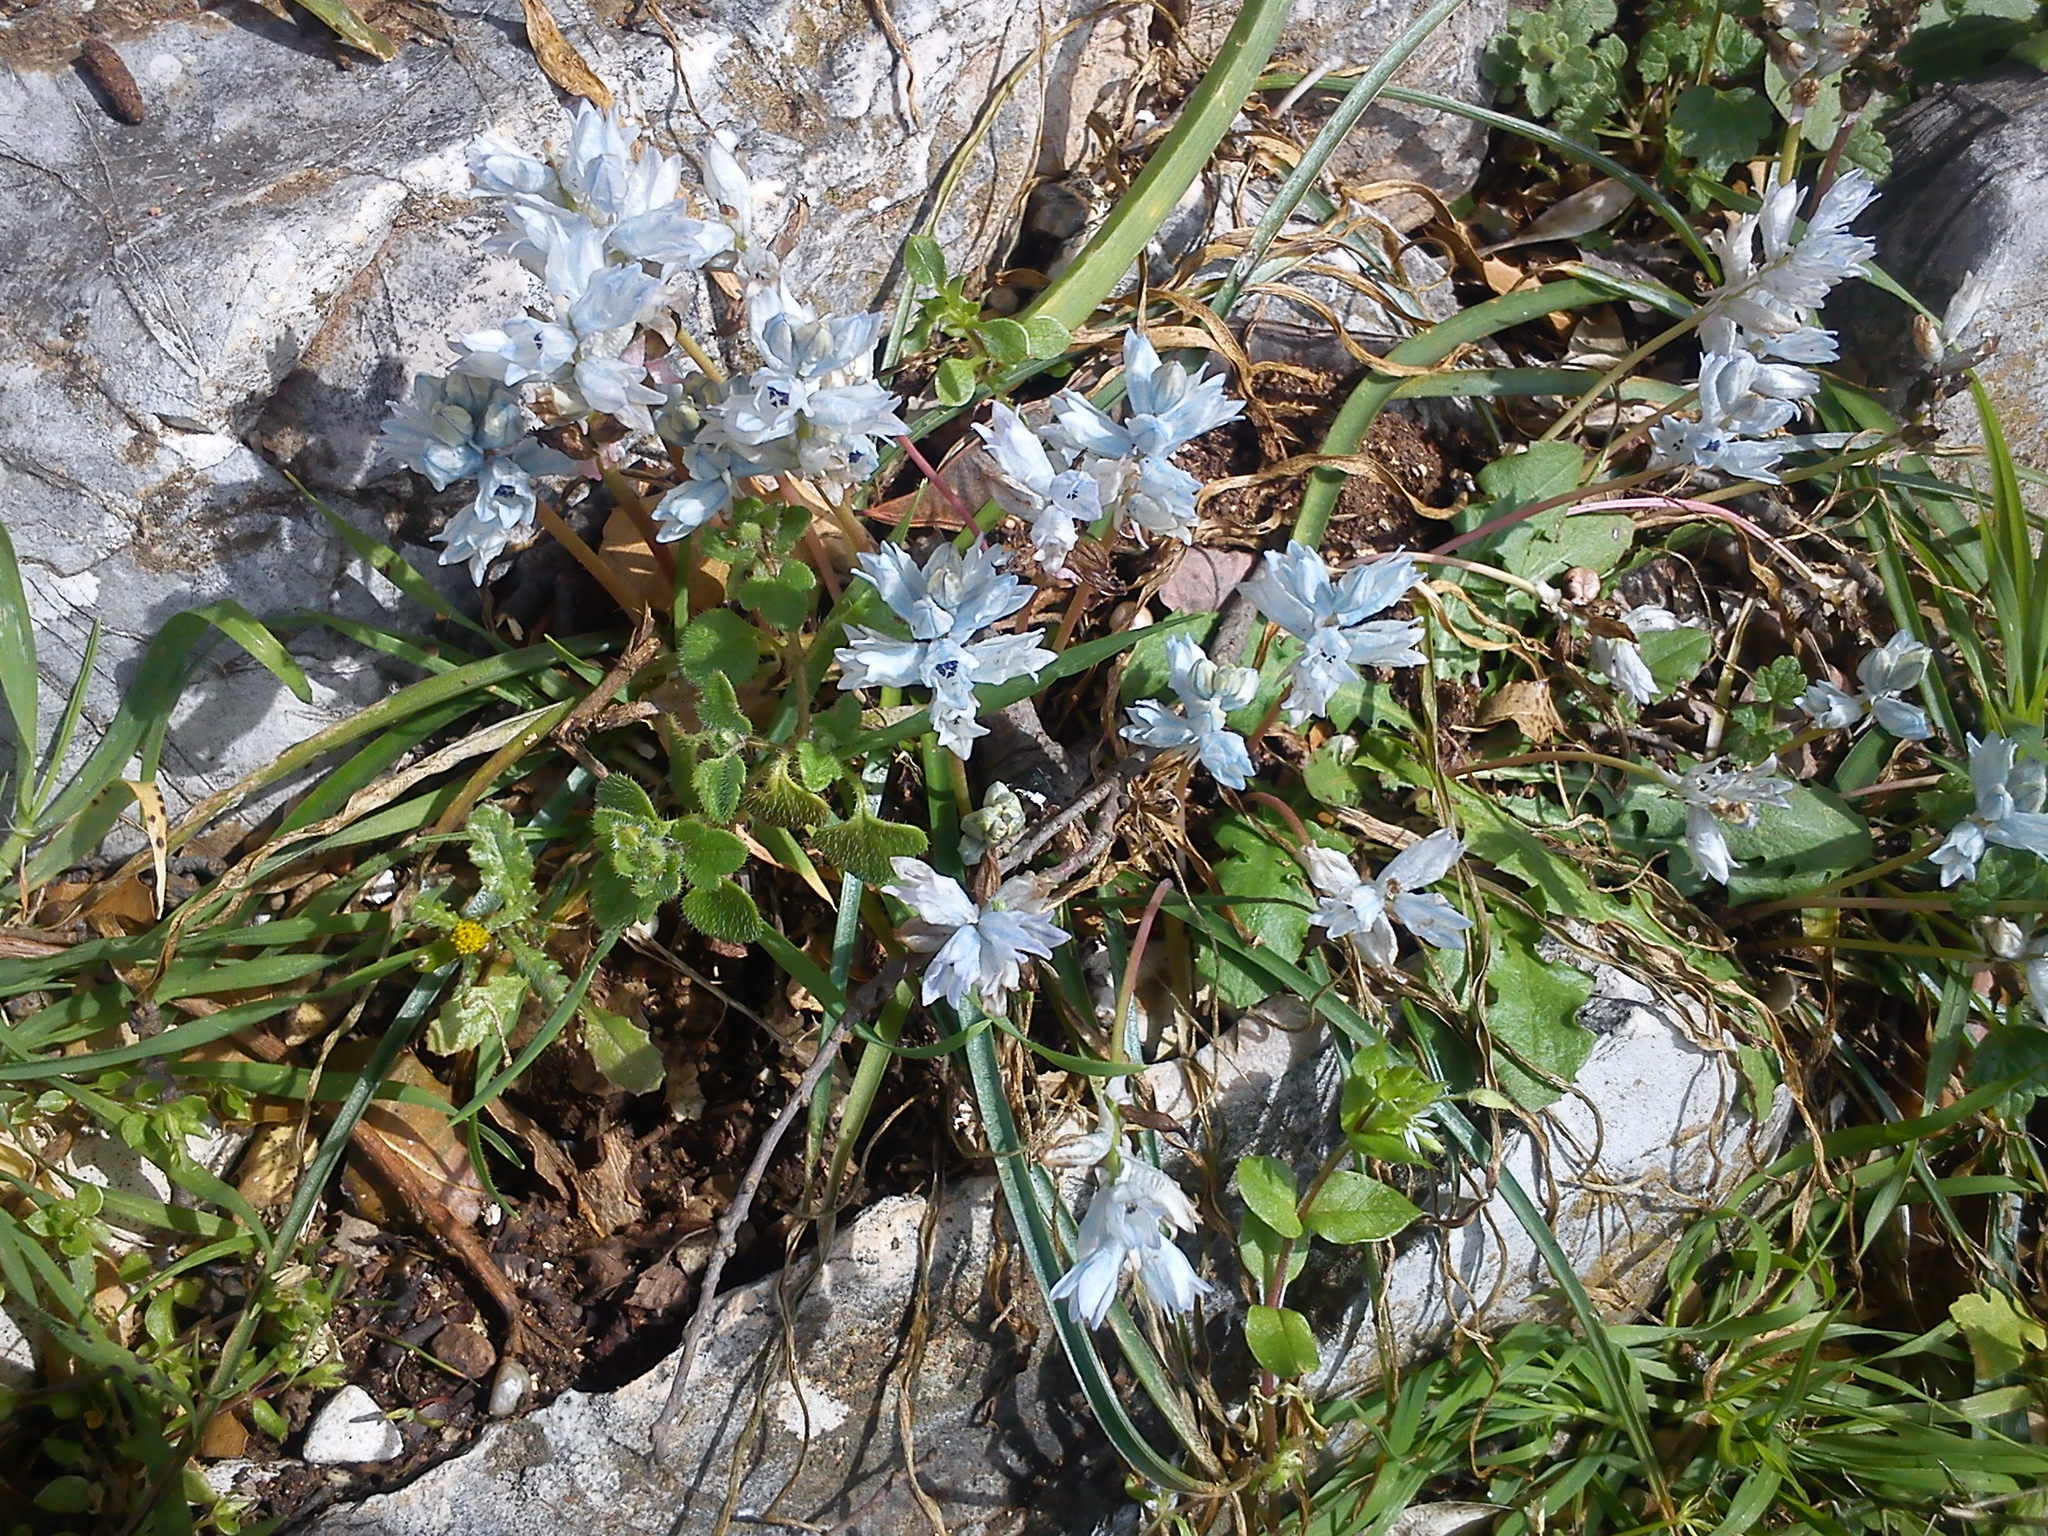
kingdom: Plantae
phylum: Tracheophyta
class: Liliopsida
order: Asparagales
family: Asparagaceae
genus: Bellevalia
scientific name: Bellevalia hyacinthoides
